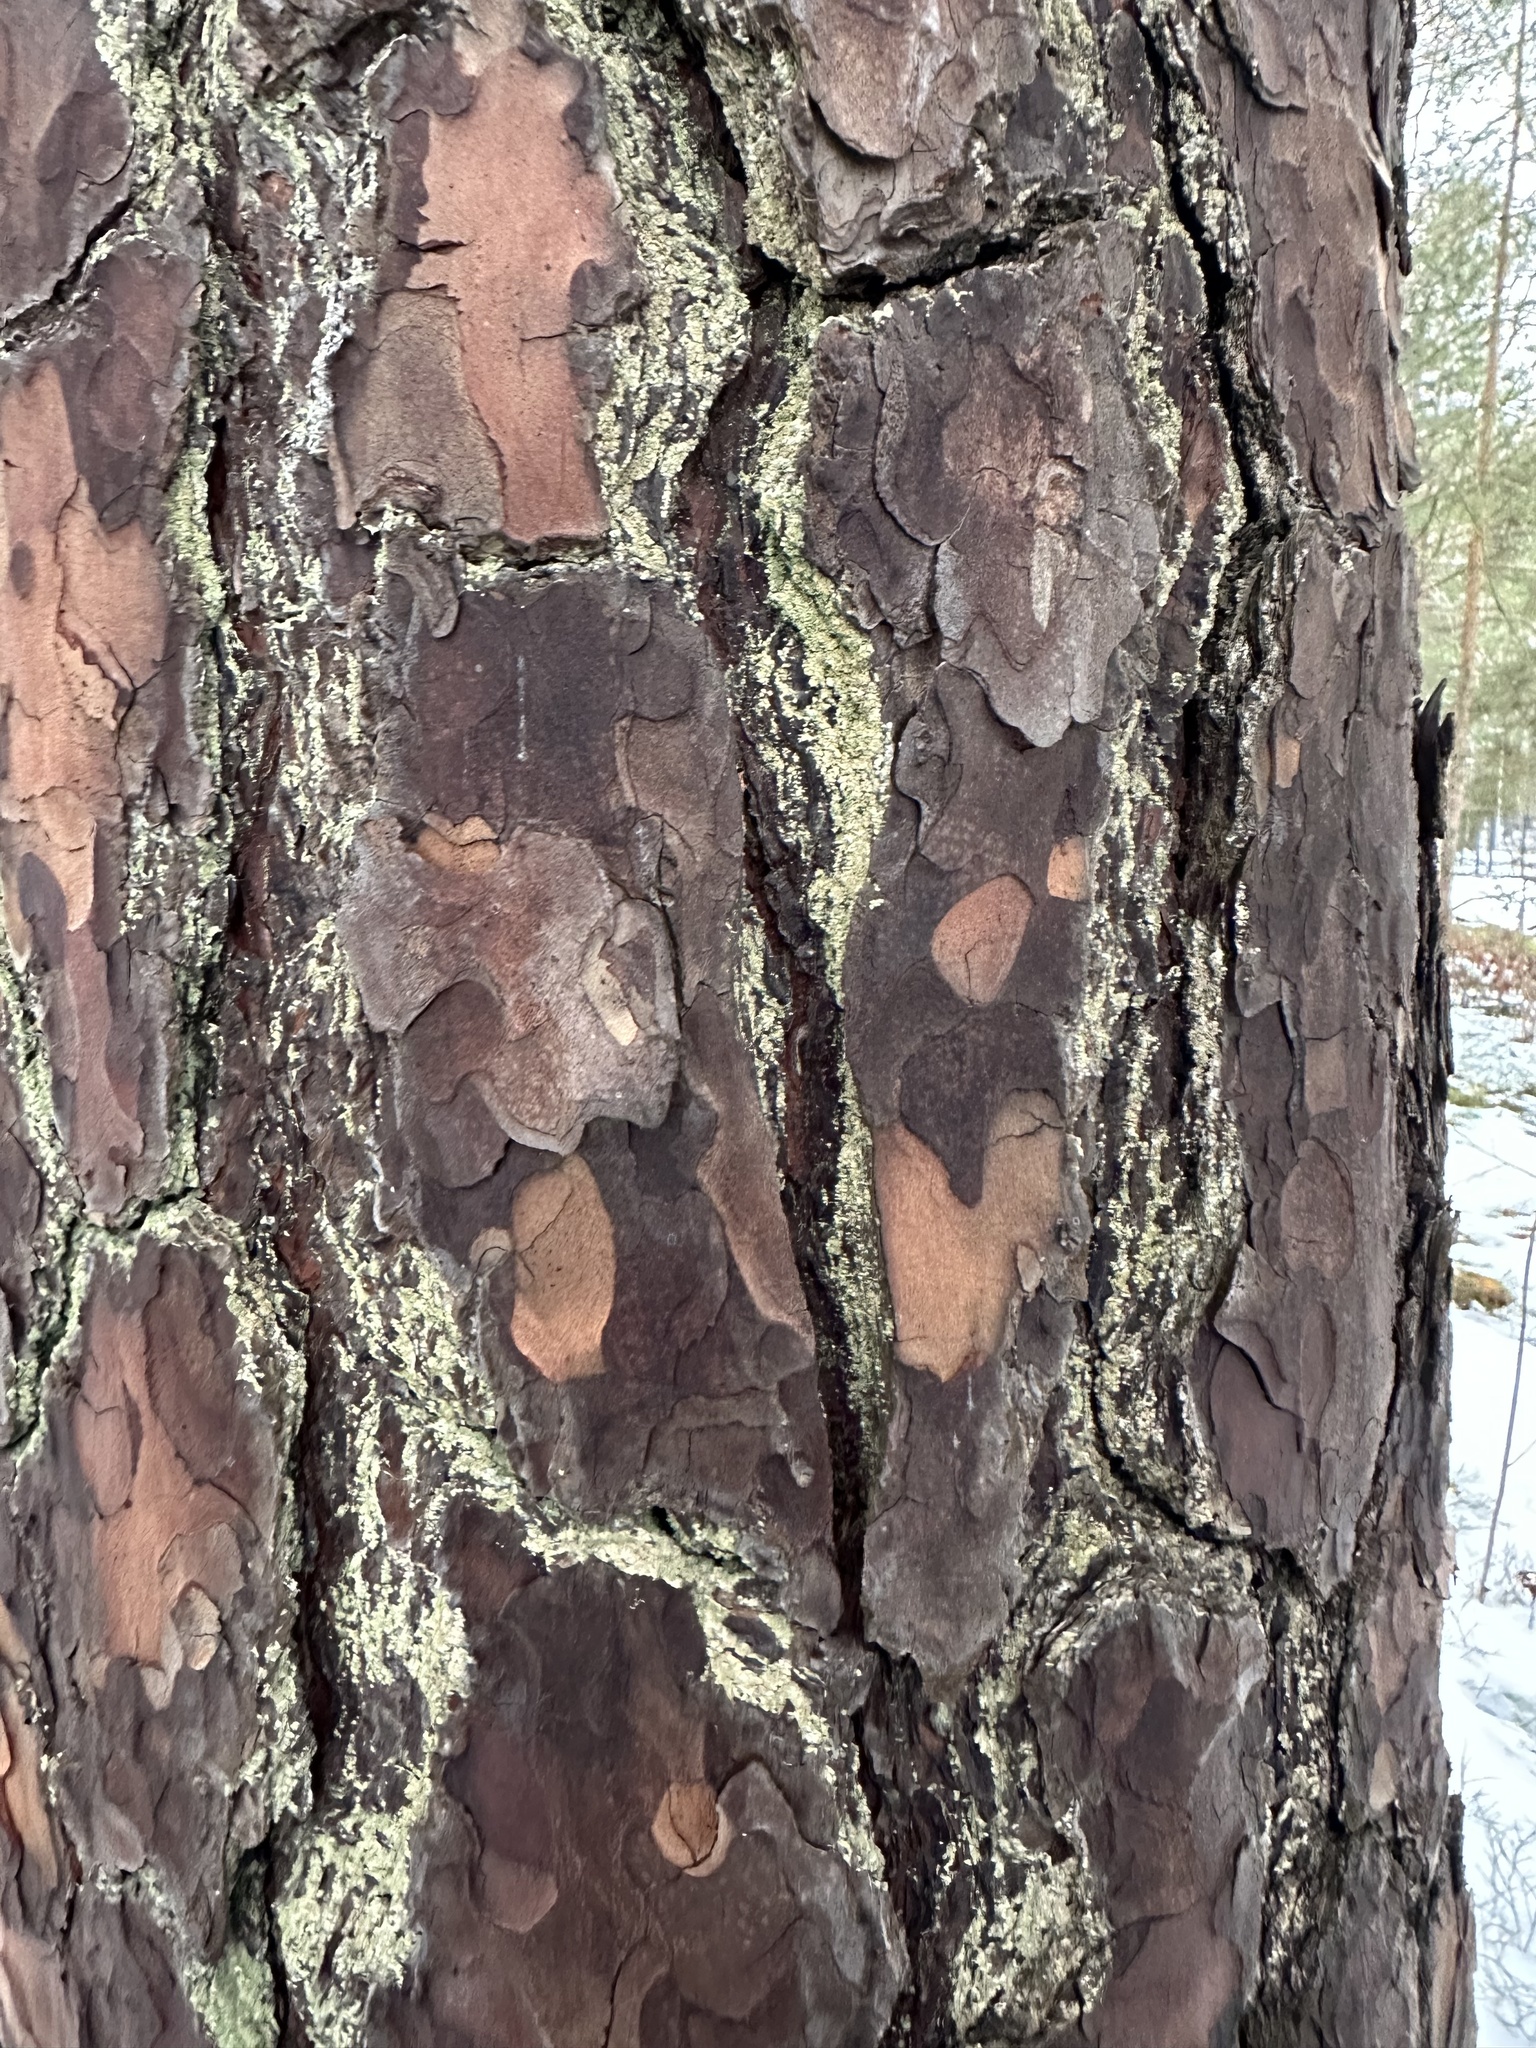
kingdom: Plantae
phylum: Tracheophyta
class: Pinopsida
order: Pinales
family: Pinaceae
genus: Pinus
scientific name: Pinus sylvestris
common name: Scots pine
